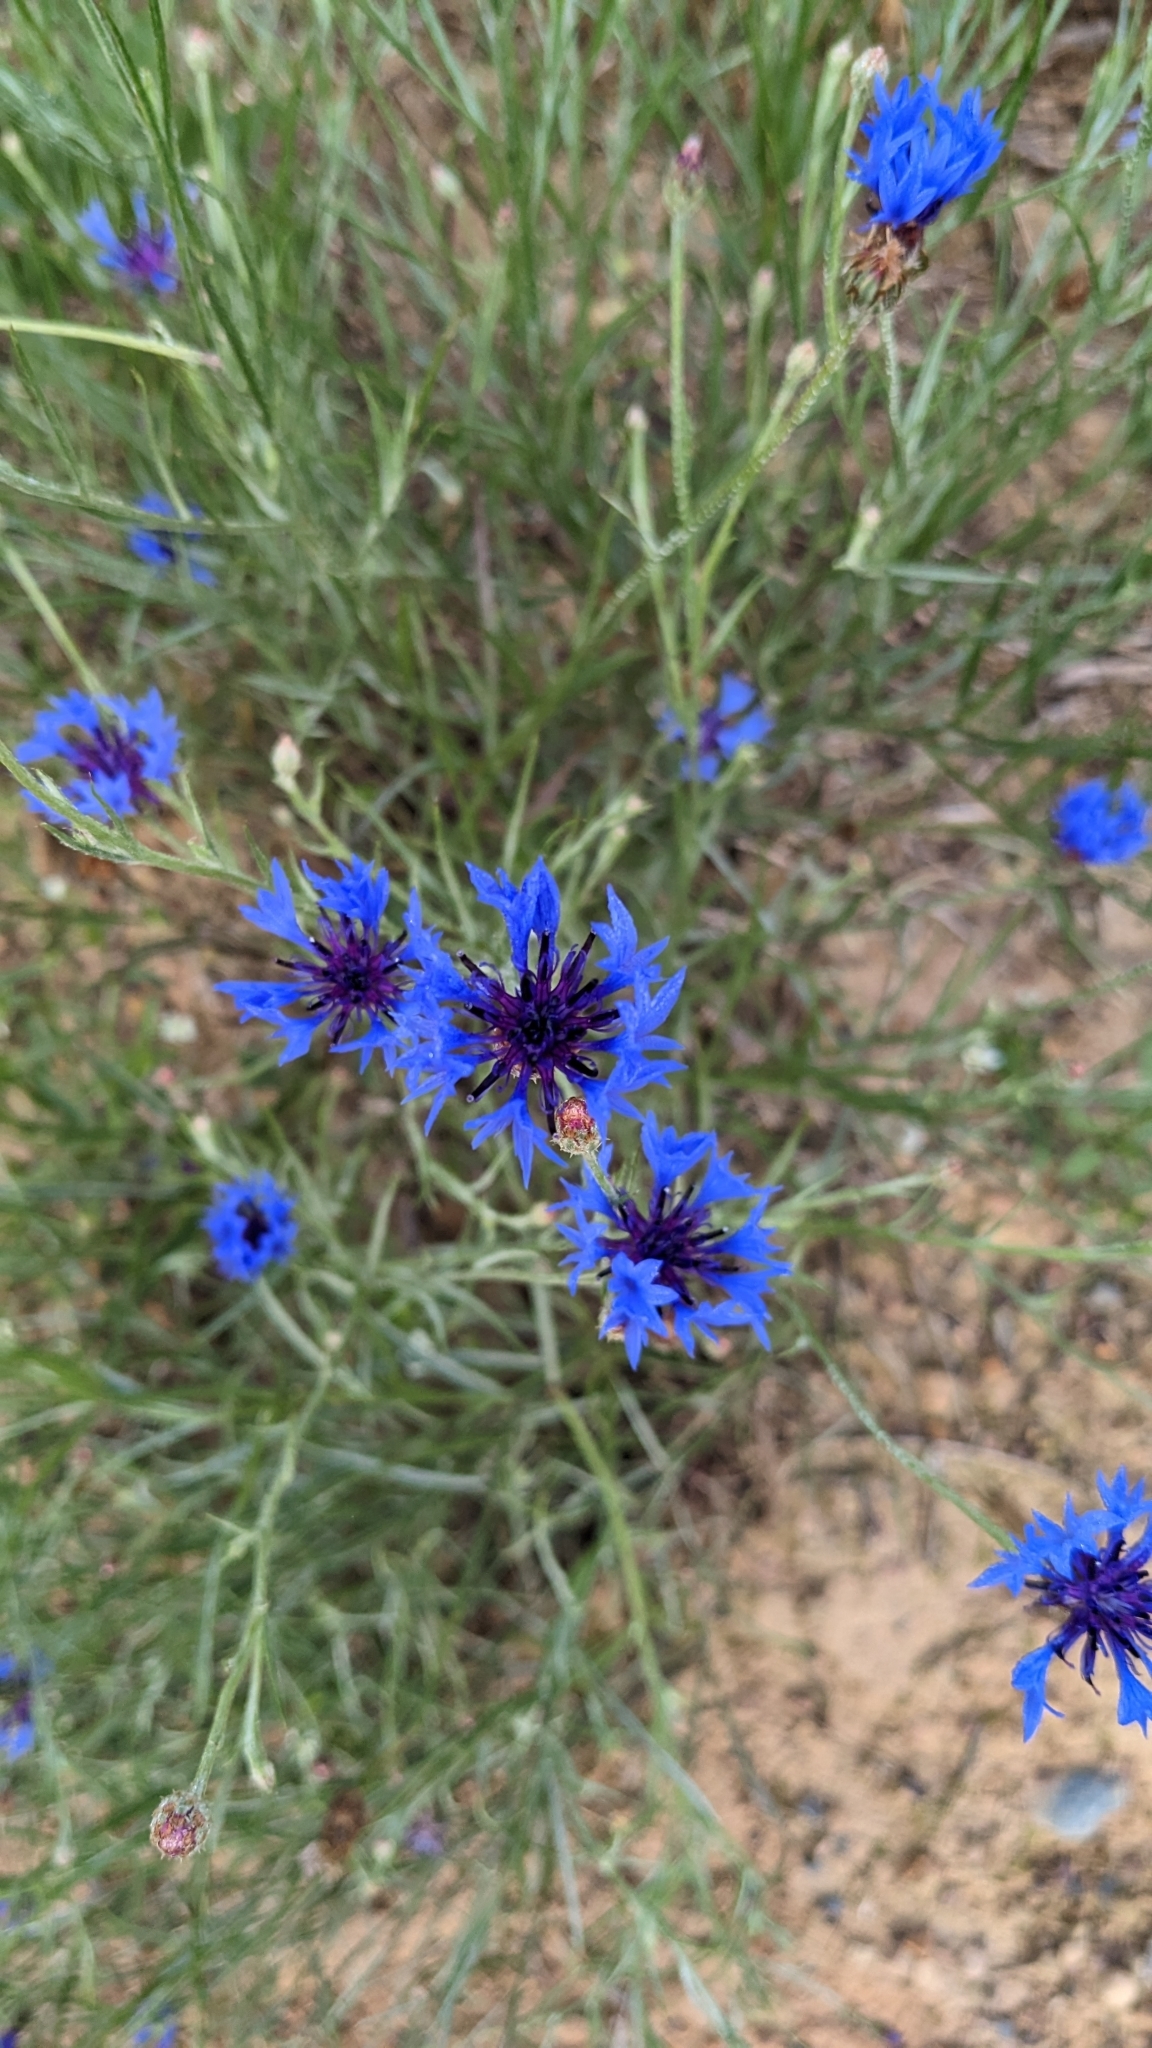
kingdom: Plantae
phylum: Tracheophyta
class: Magnoliopsida
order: Asterales
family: Asteraceae
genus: Centaurea
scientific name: Centaurea cyanus
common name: Cornflower
